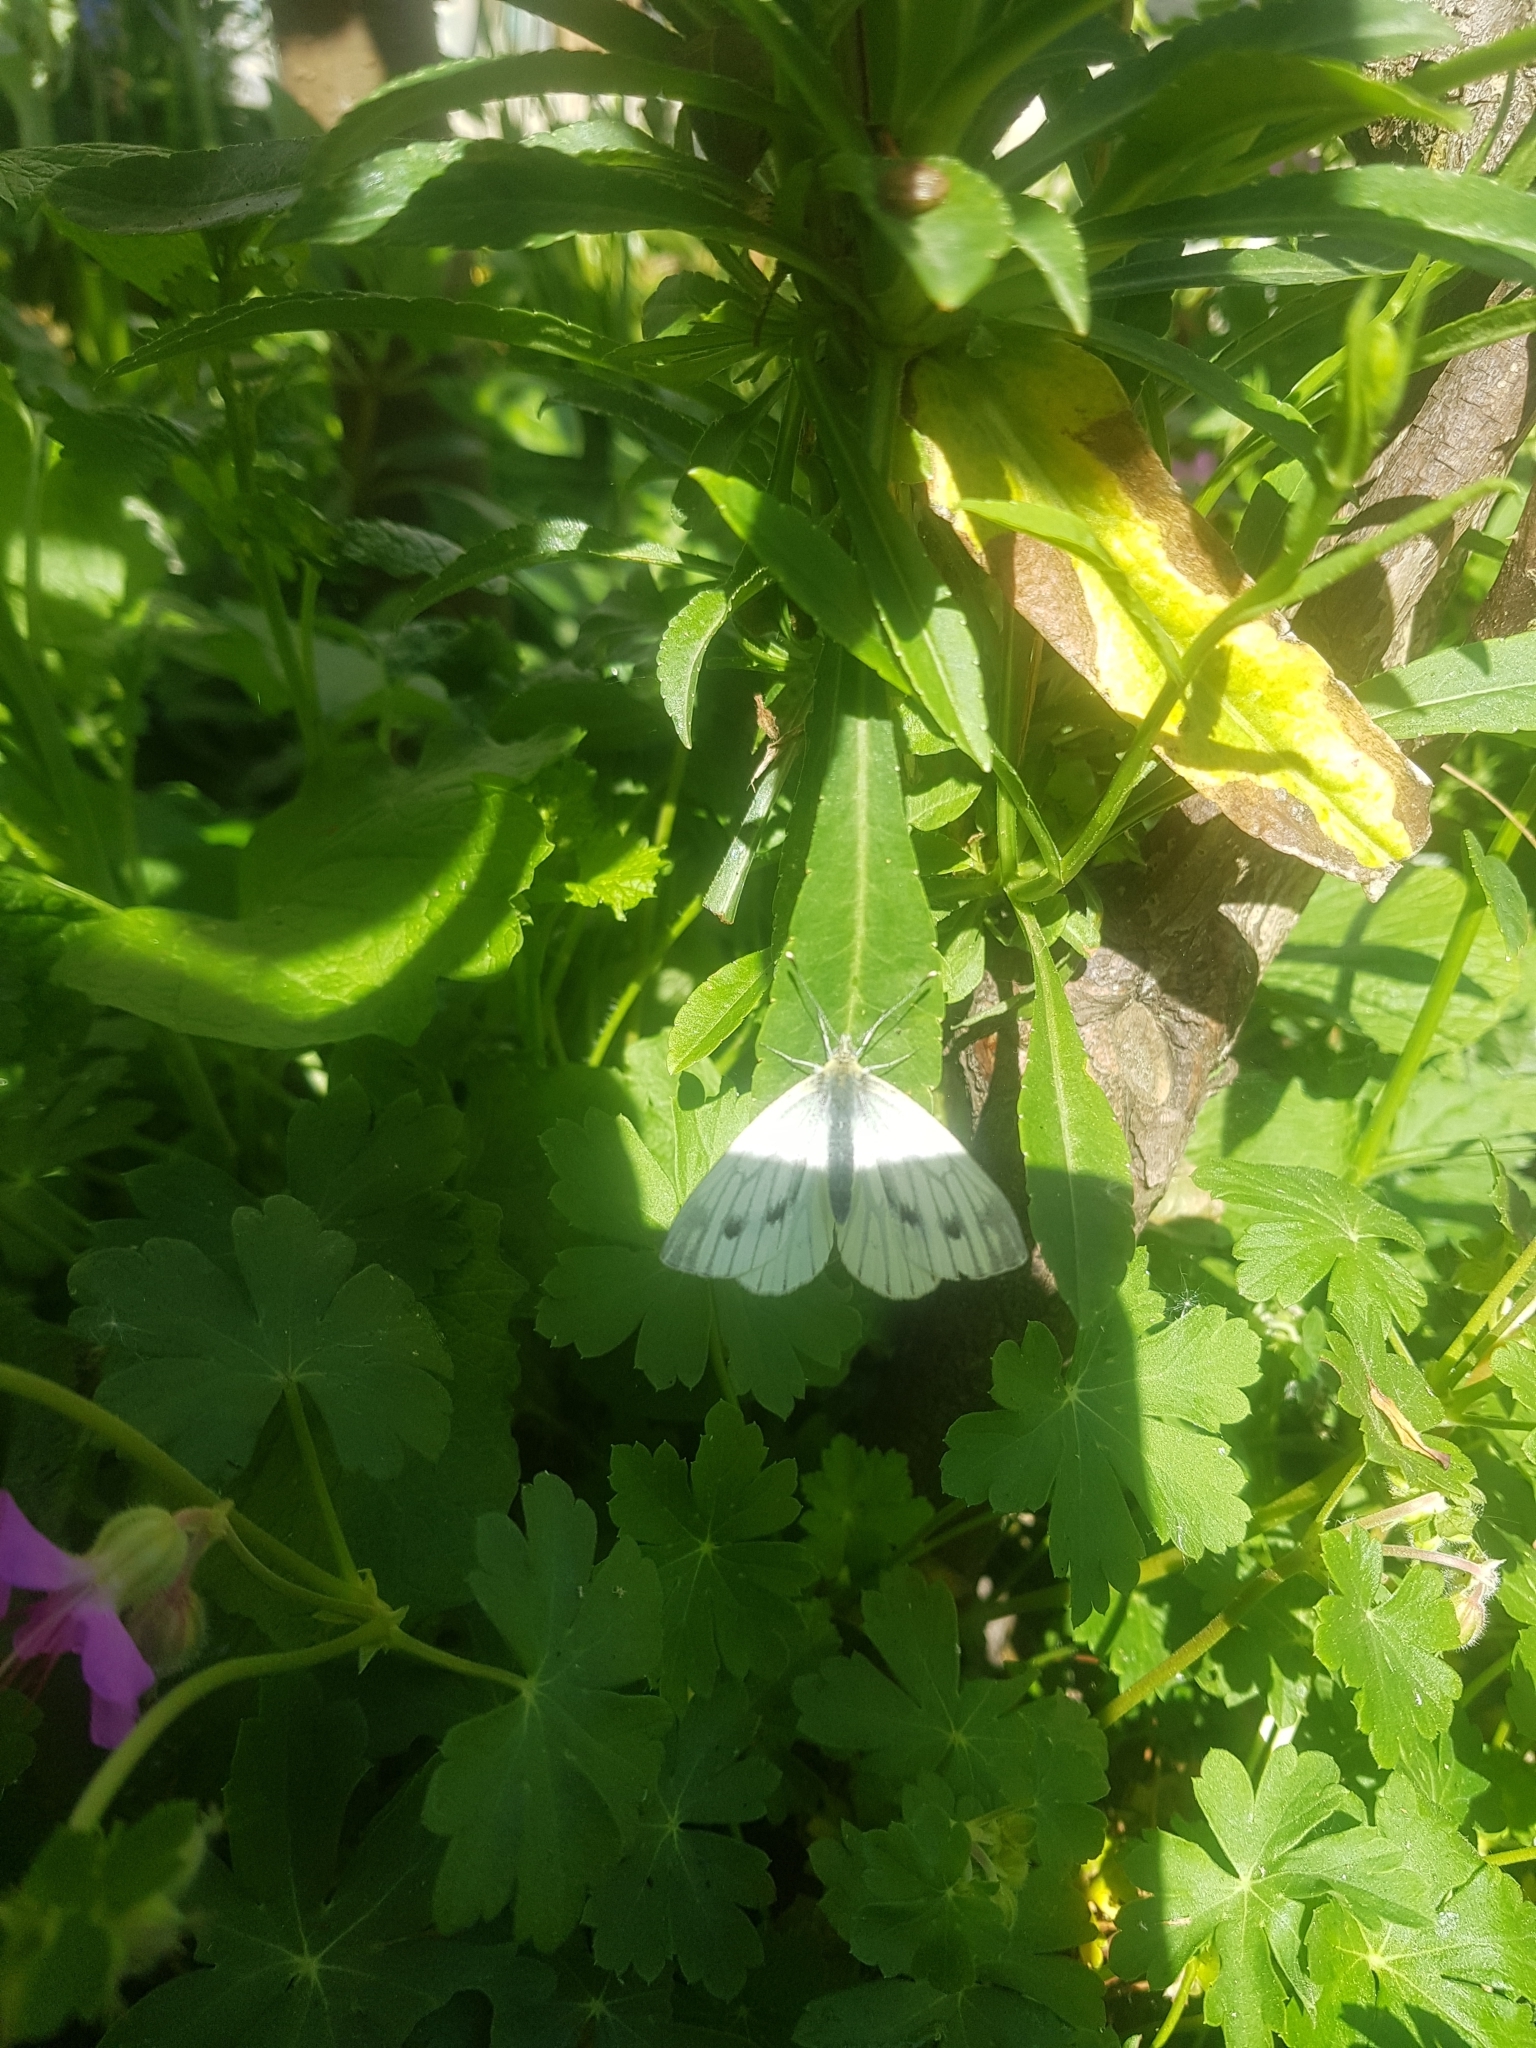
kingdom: Animalia
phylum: Arthropoda
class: Insecta
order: Lepidoptera
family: Pieridae
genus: Pieris
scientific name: Pieris napi
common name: Green-veined white
